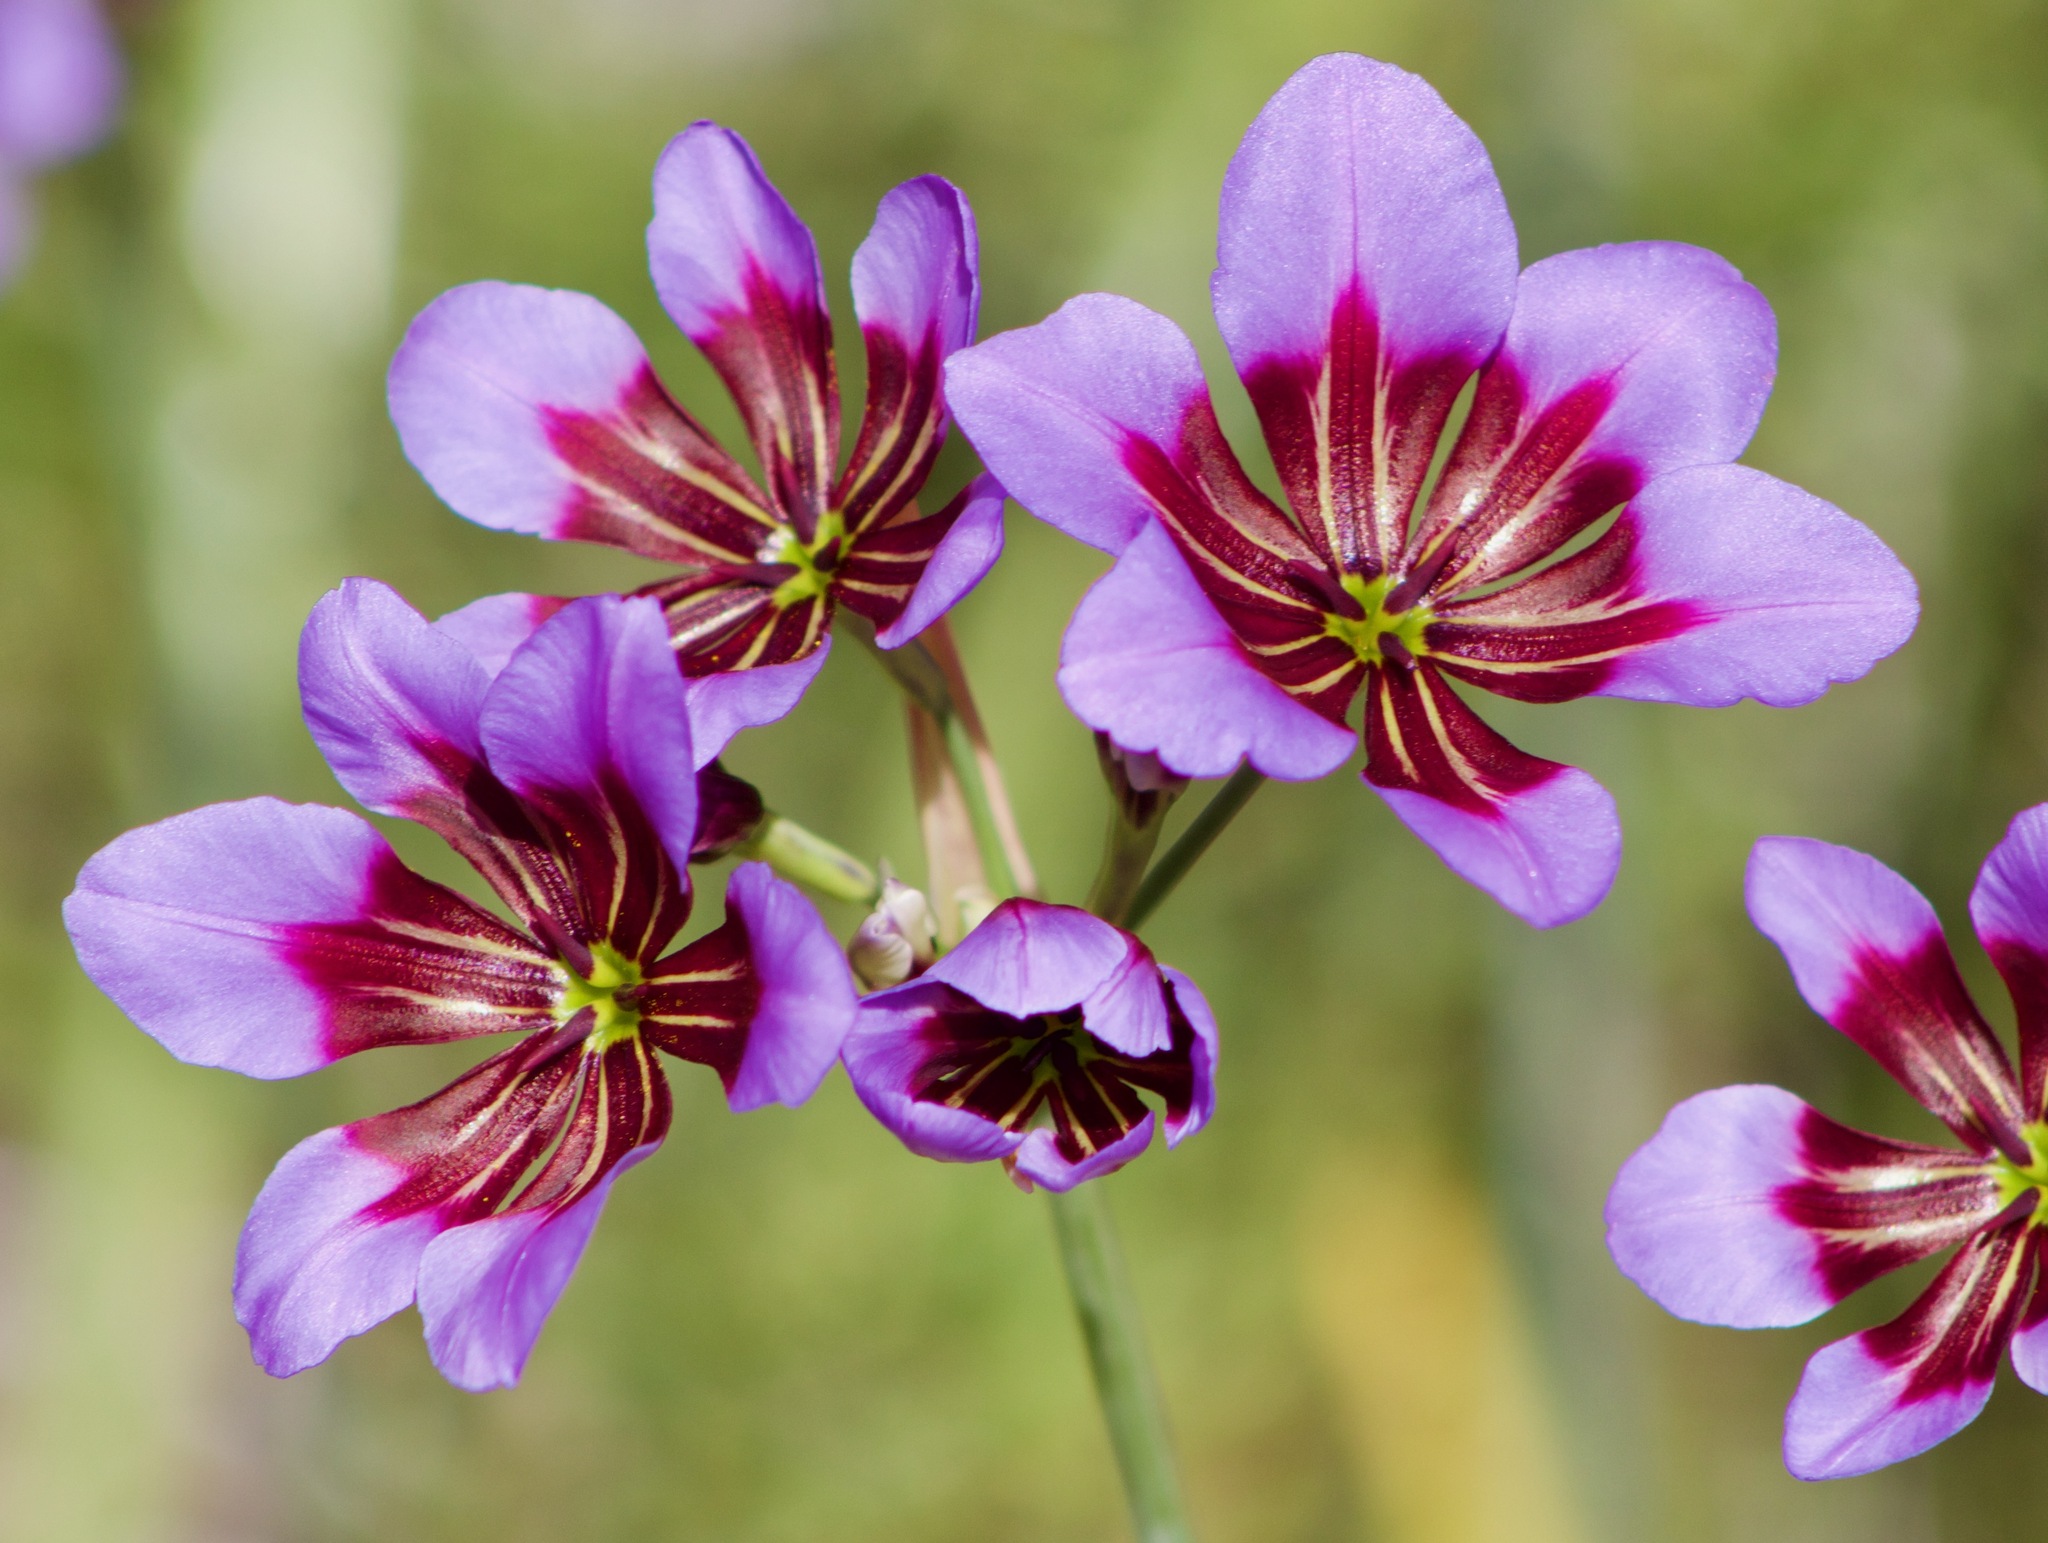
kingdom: Plantae
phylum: Tracheophyta
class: Liliopsida
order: Asparagales
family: Amaryllidaceae
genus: Leucocoryne
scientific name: Leucocoryne purpurea
